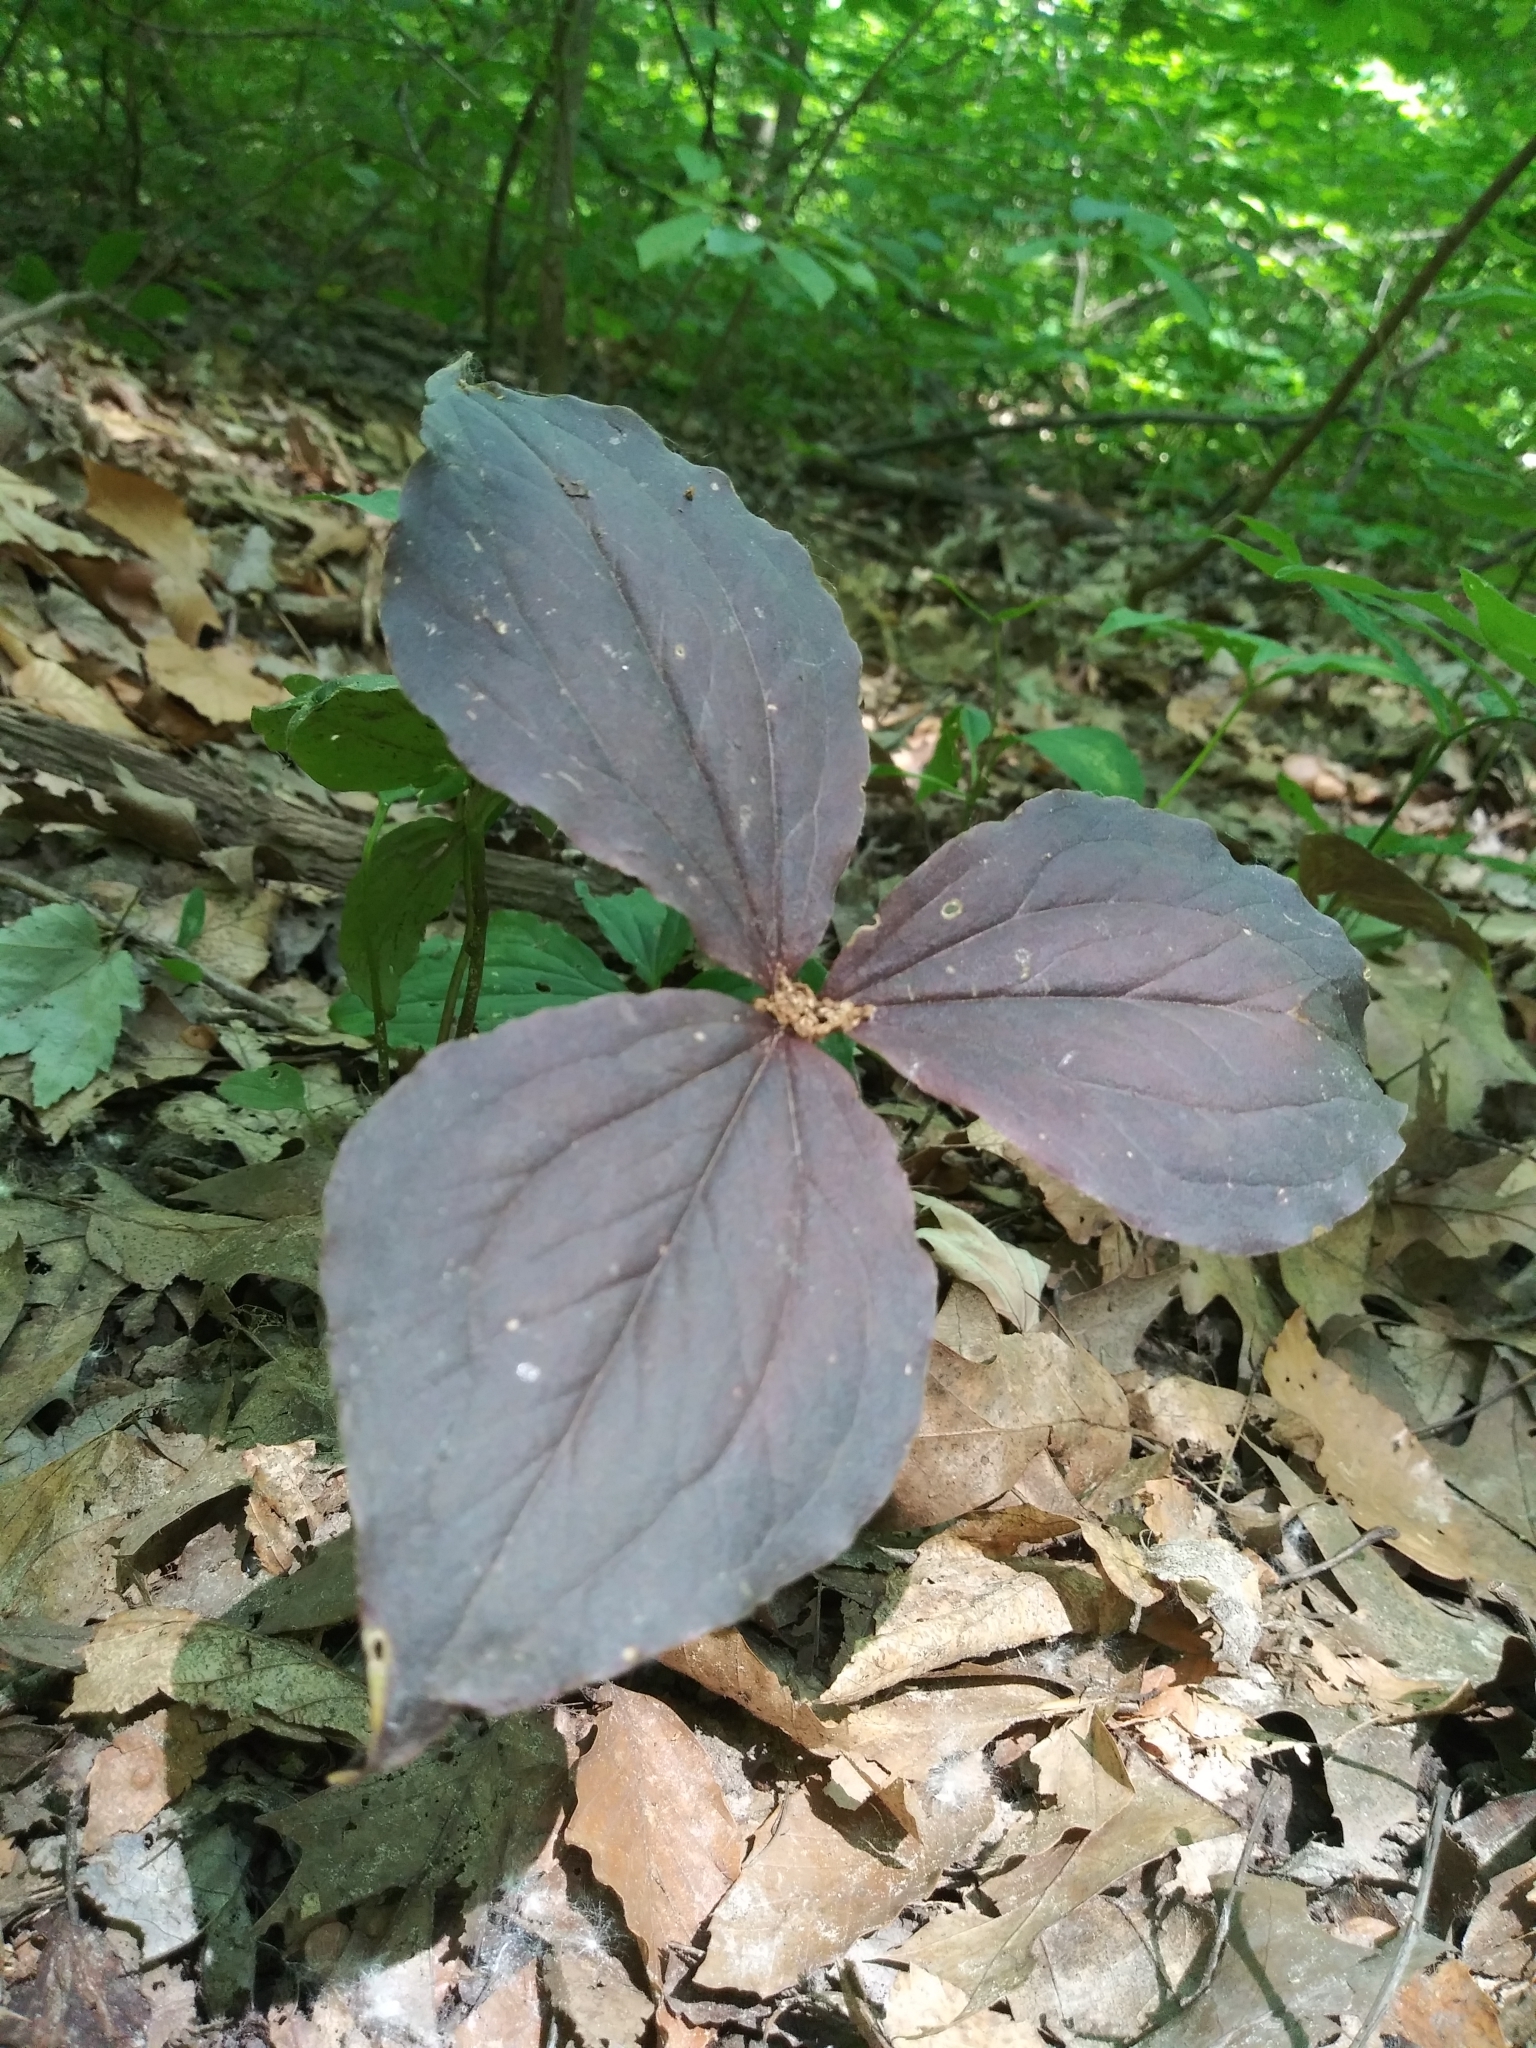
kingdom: Plantae
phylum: Tracheophyta
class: Liliopsida
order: Liliales
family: Melanthiaceae
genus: Trillium
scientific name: Trillium grandiflorum
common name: Great white trillium
